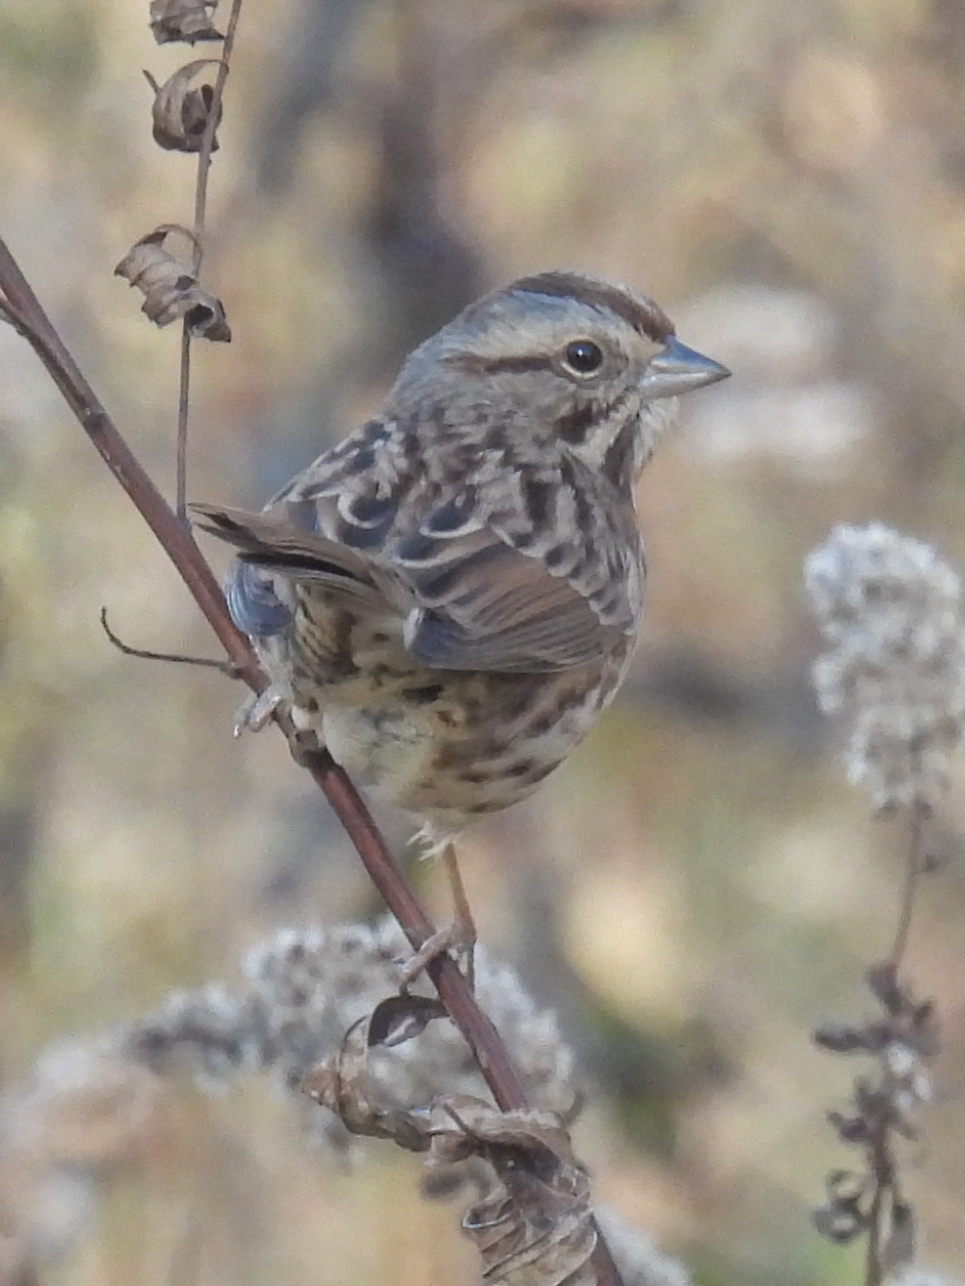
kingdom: Animalia
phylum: Chordata
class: Aves
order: Passeriformes
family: Passerellidae
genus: Melospiza
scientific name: Melospiza melodia
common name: Song sparrow
